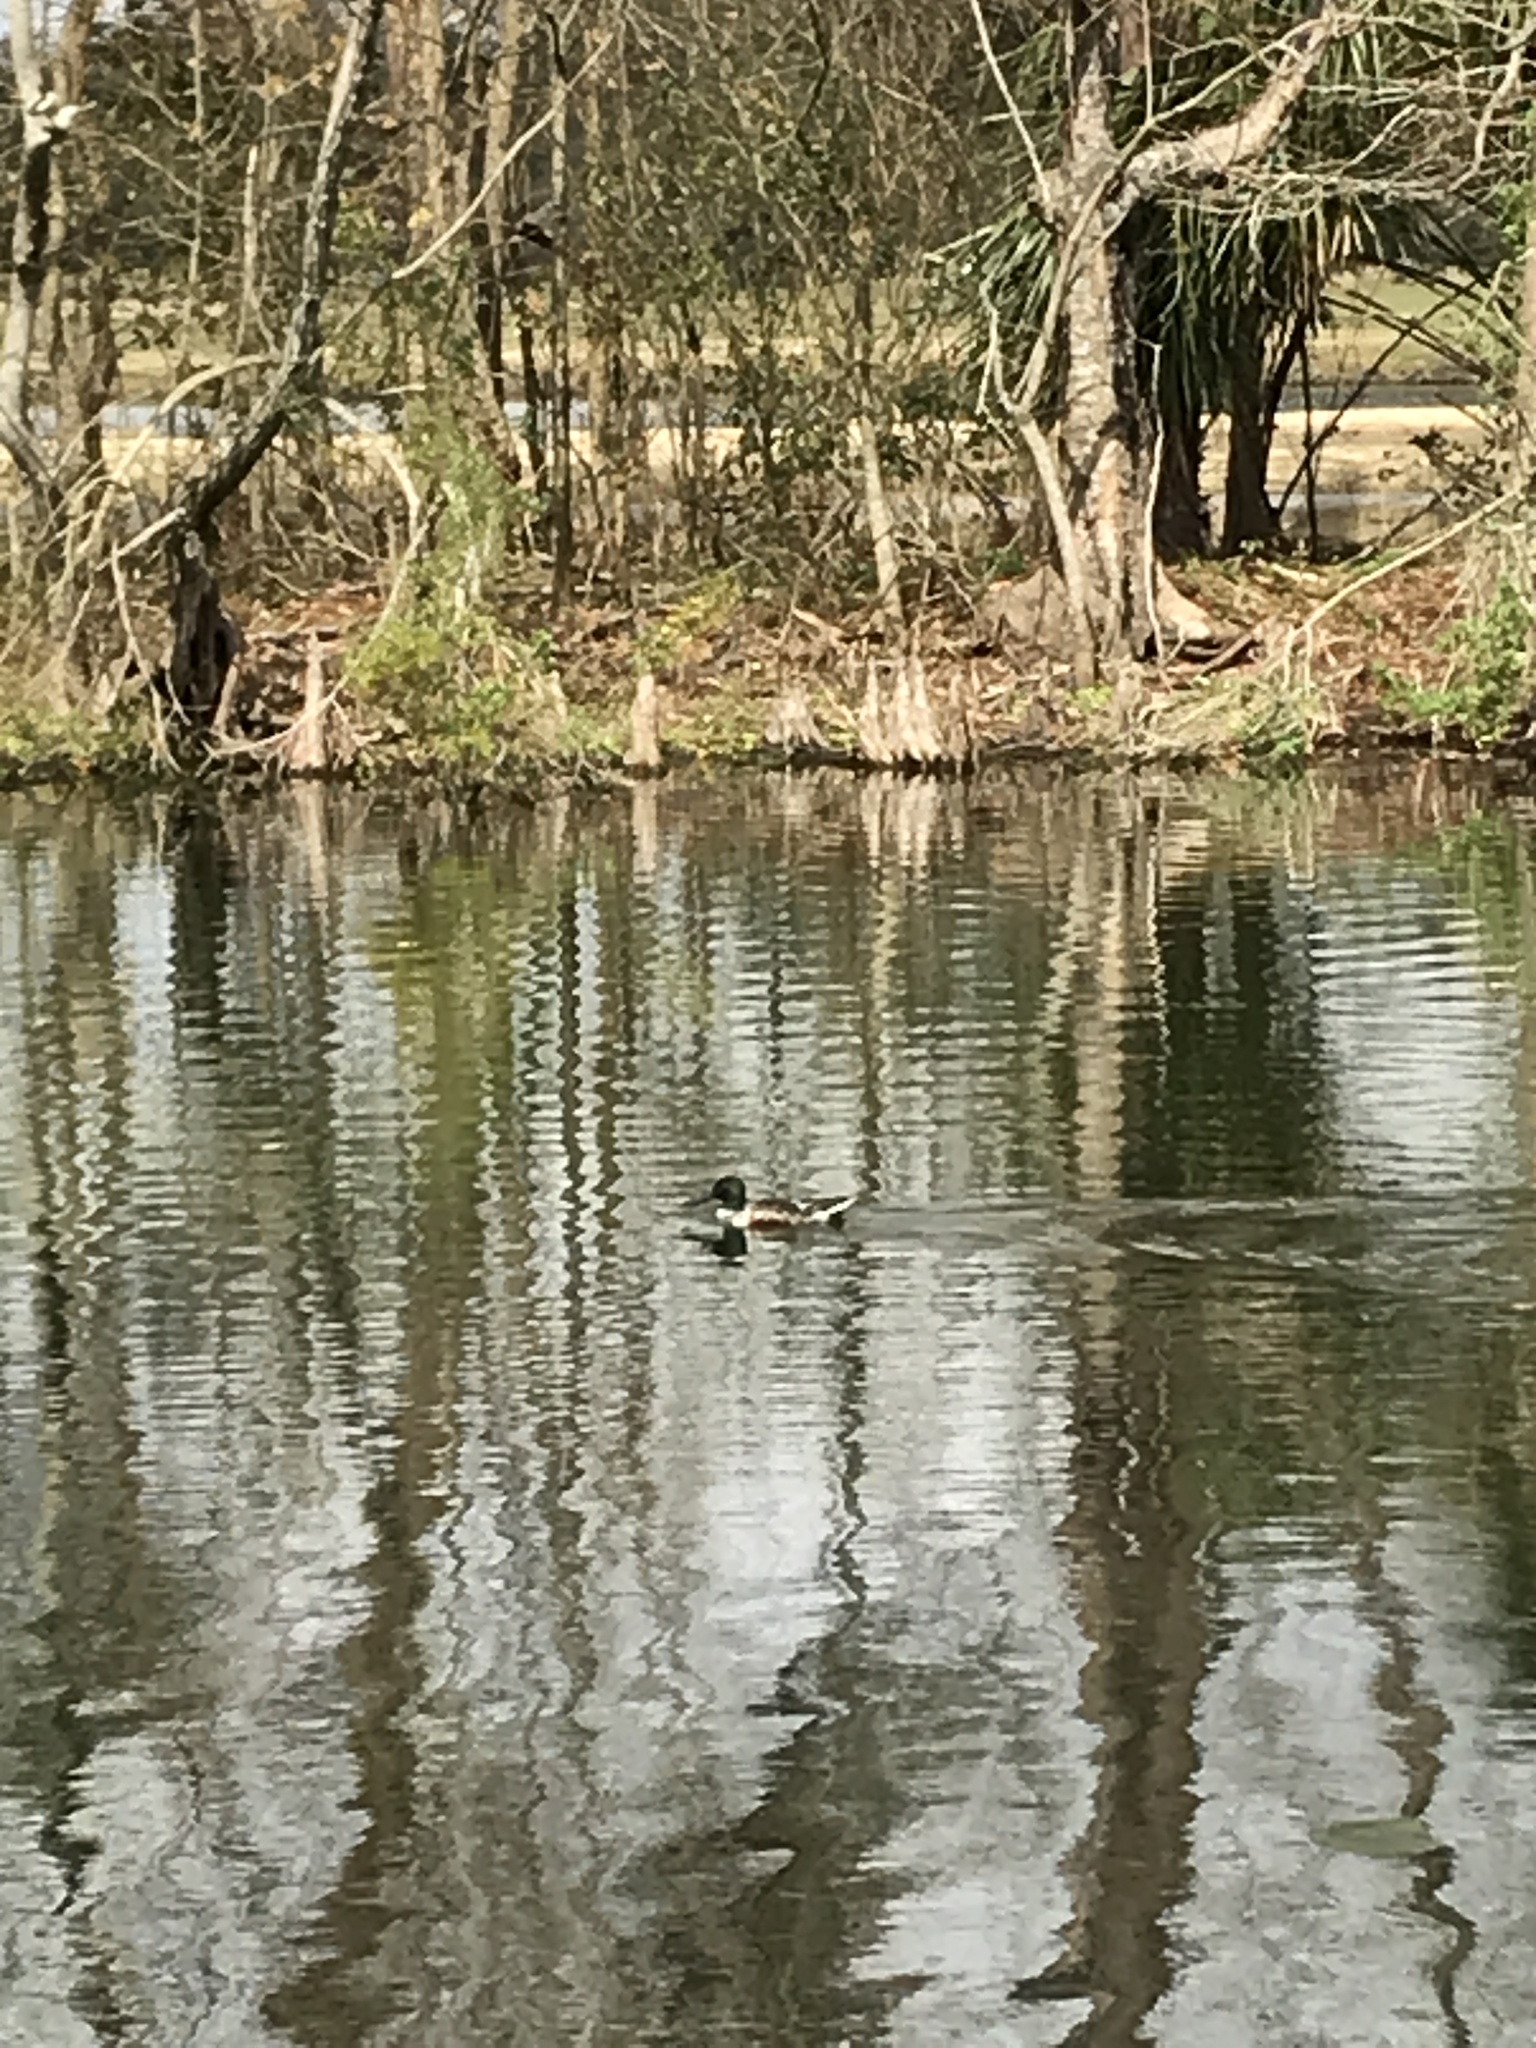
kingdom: Animalia
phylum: Chordata
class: Aves
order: Anseriformes
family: Anatidae
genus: Spatula
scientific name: Spatula clypeata
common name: Northern shoveler
